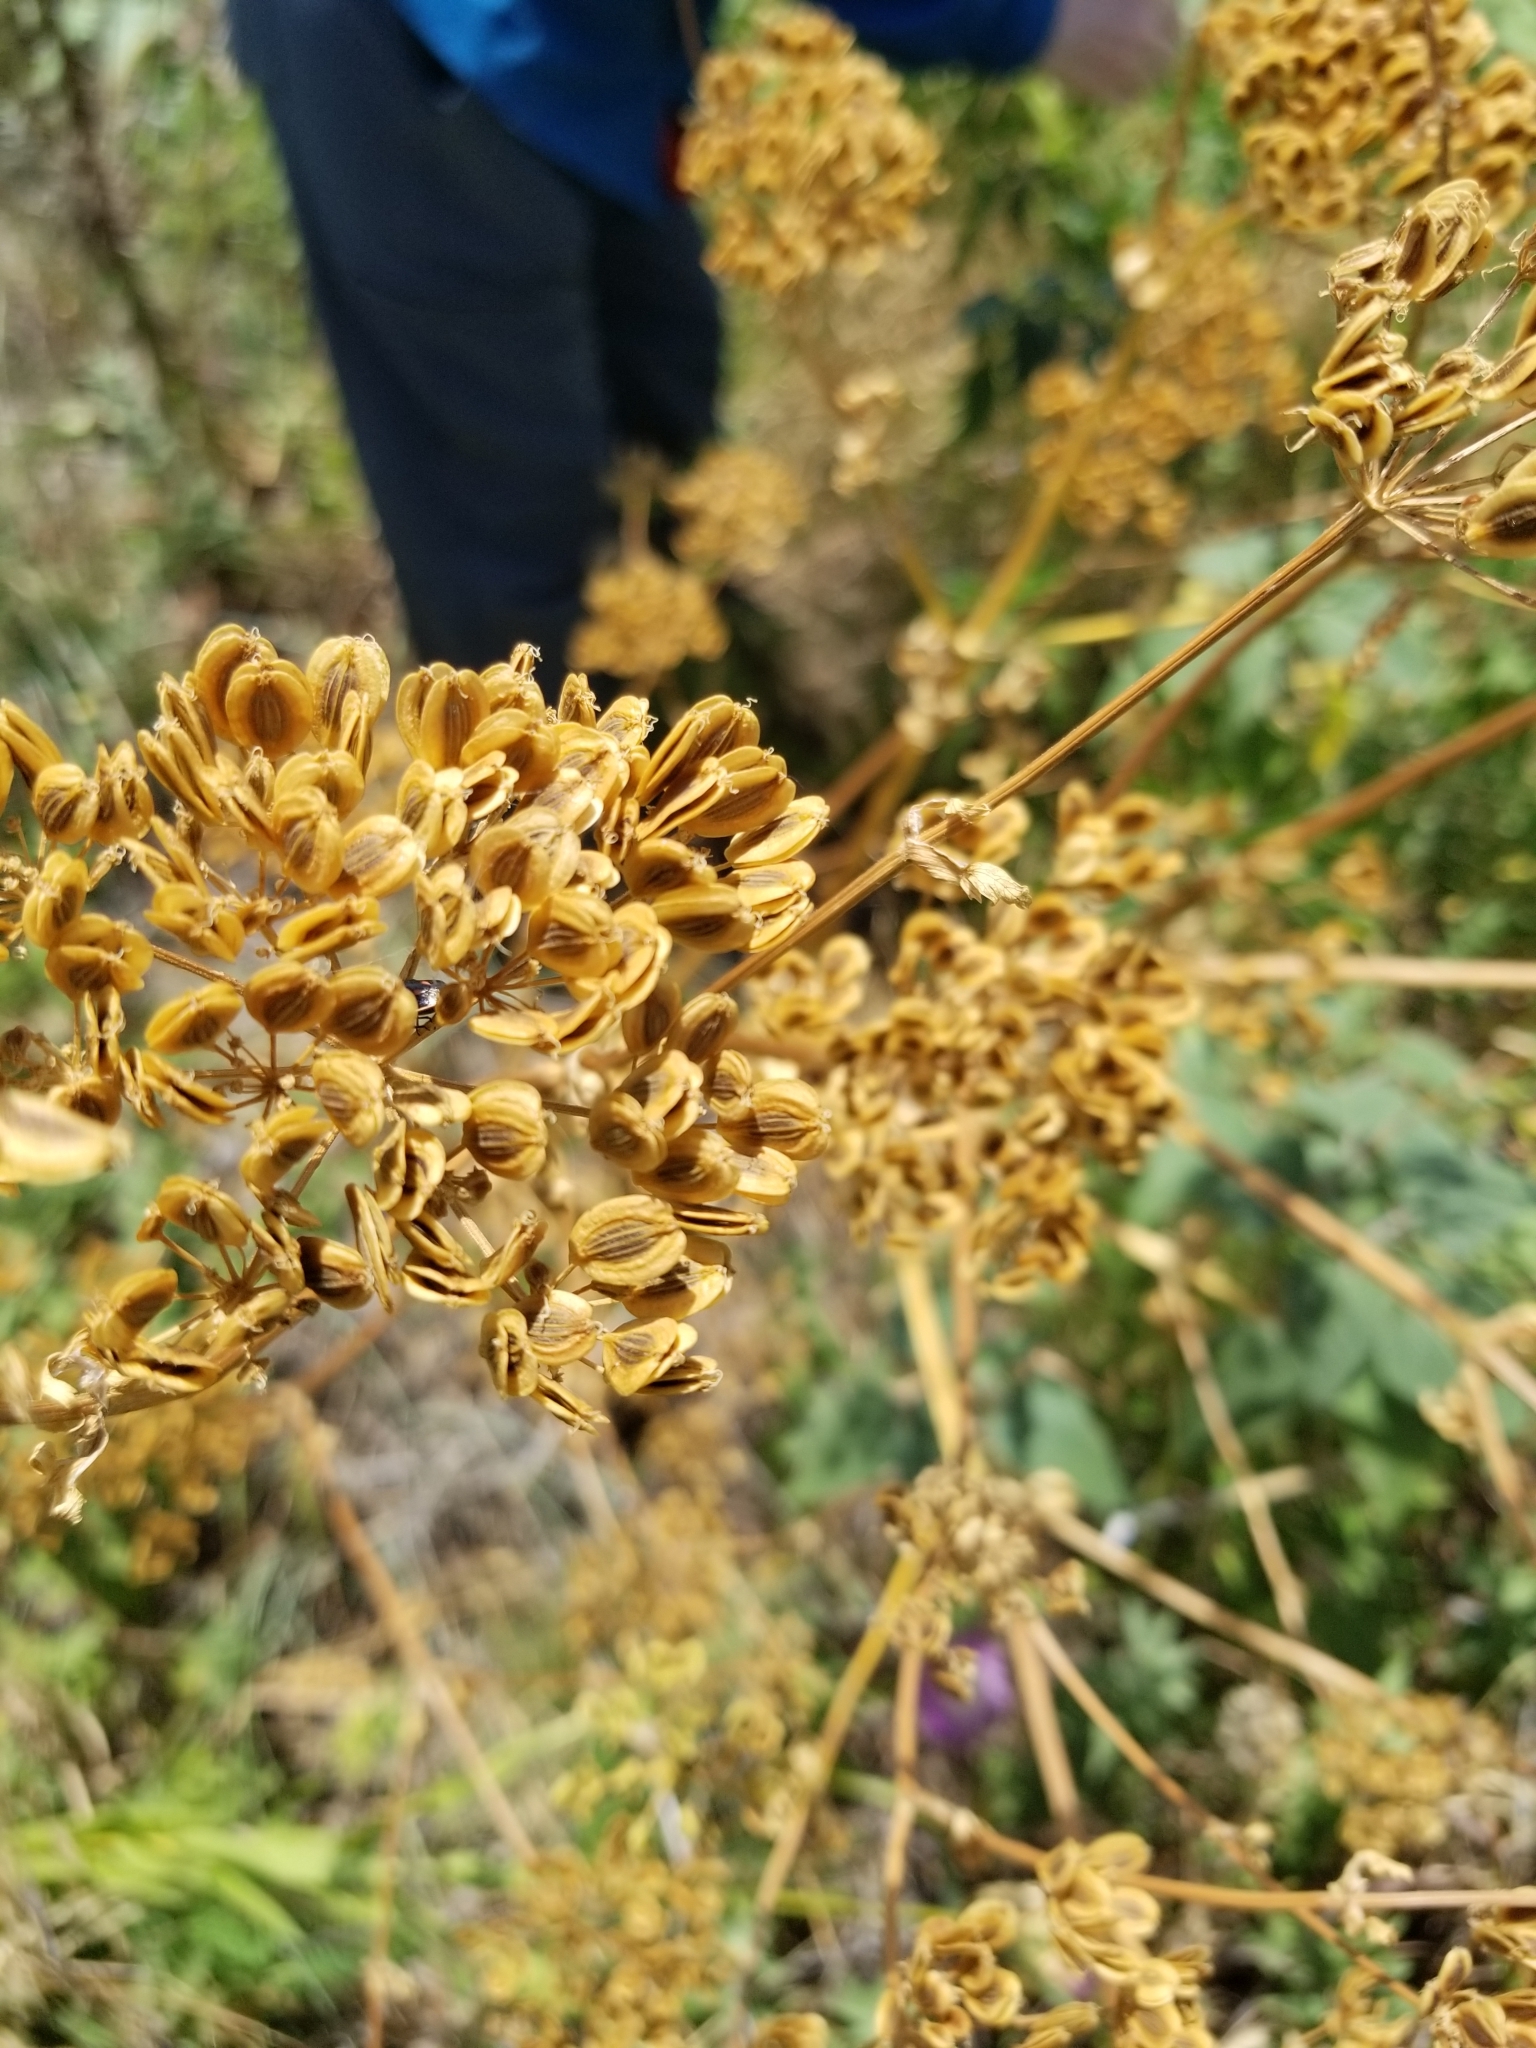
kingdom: Plantae
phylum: Tracheophyta
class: Magnoliopsida
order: Apiales
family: Apiaceae
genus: Polytaenia
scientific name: Polytaenia texana
